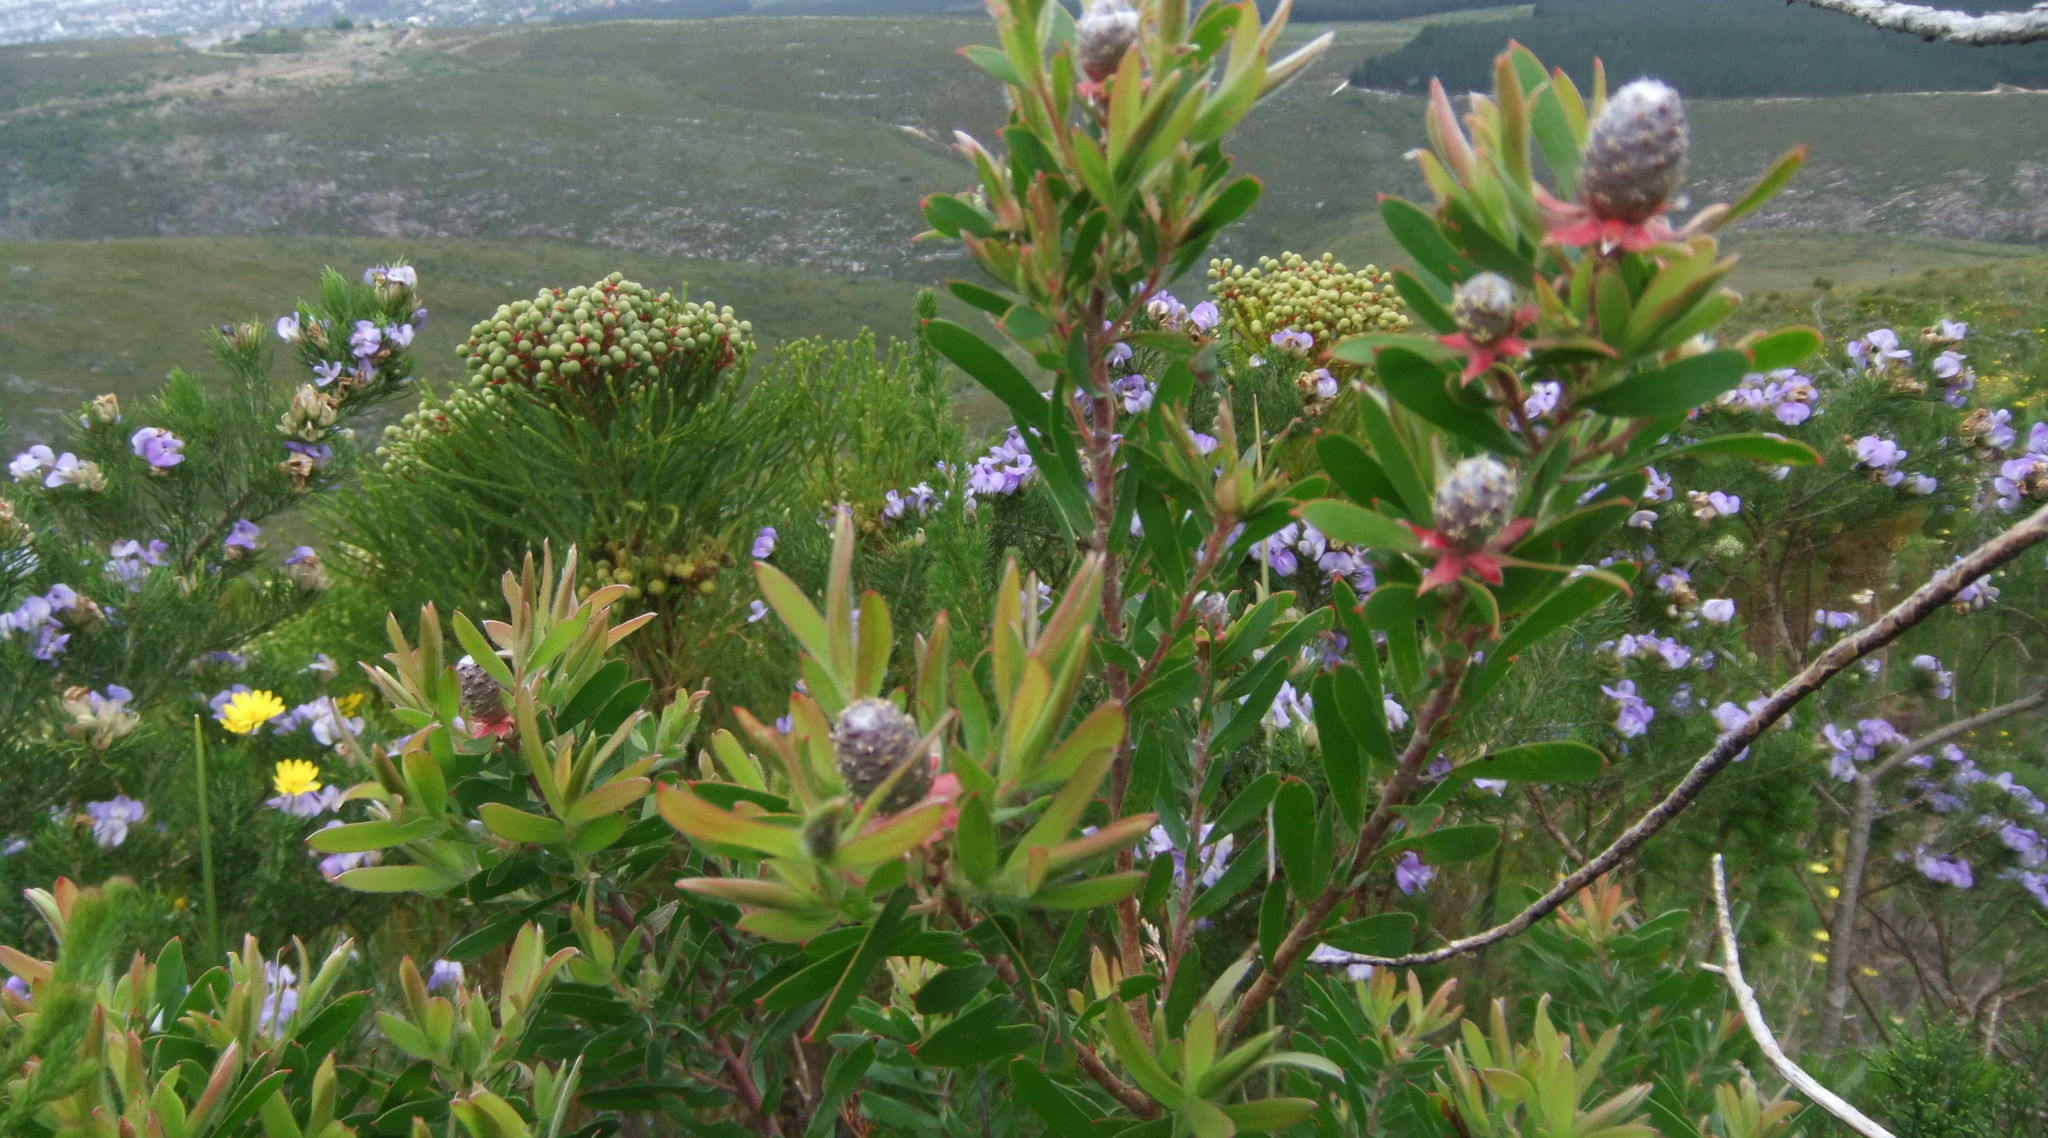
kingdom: Plantae
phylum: Tracheophyta
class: Magnoliopsida
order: Proteales
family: Proteaceae
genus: Leucadendron
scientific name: Leucadendron conicum
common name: Garden route conebush
